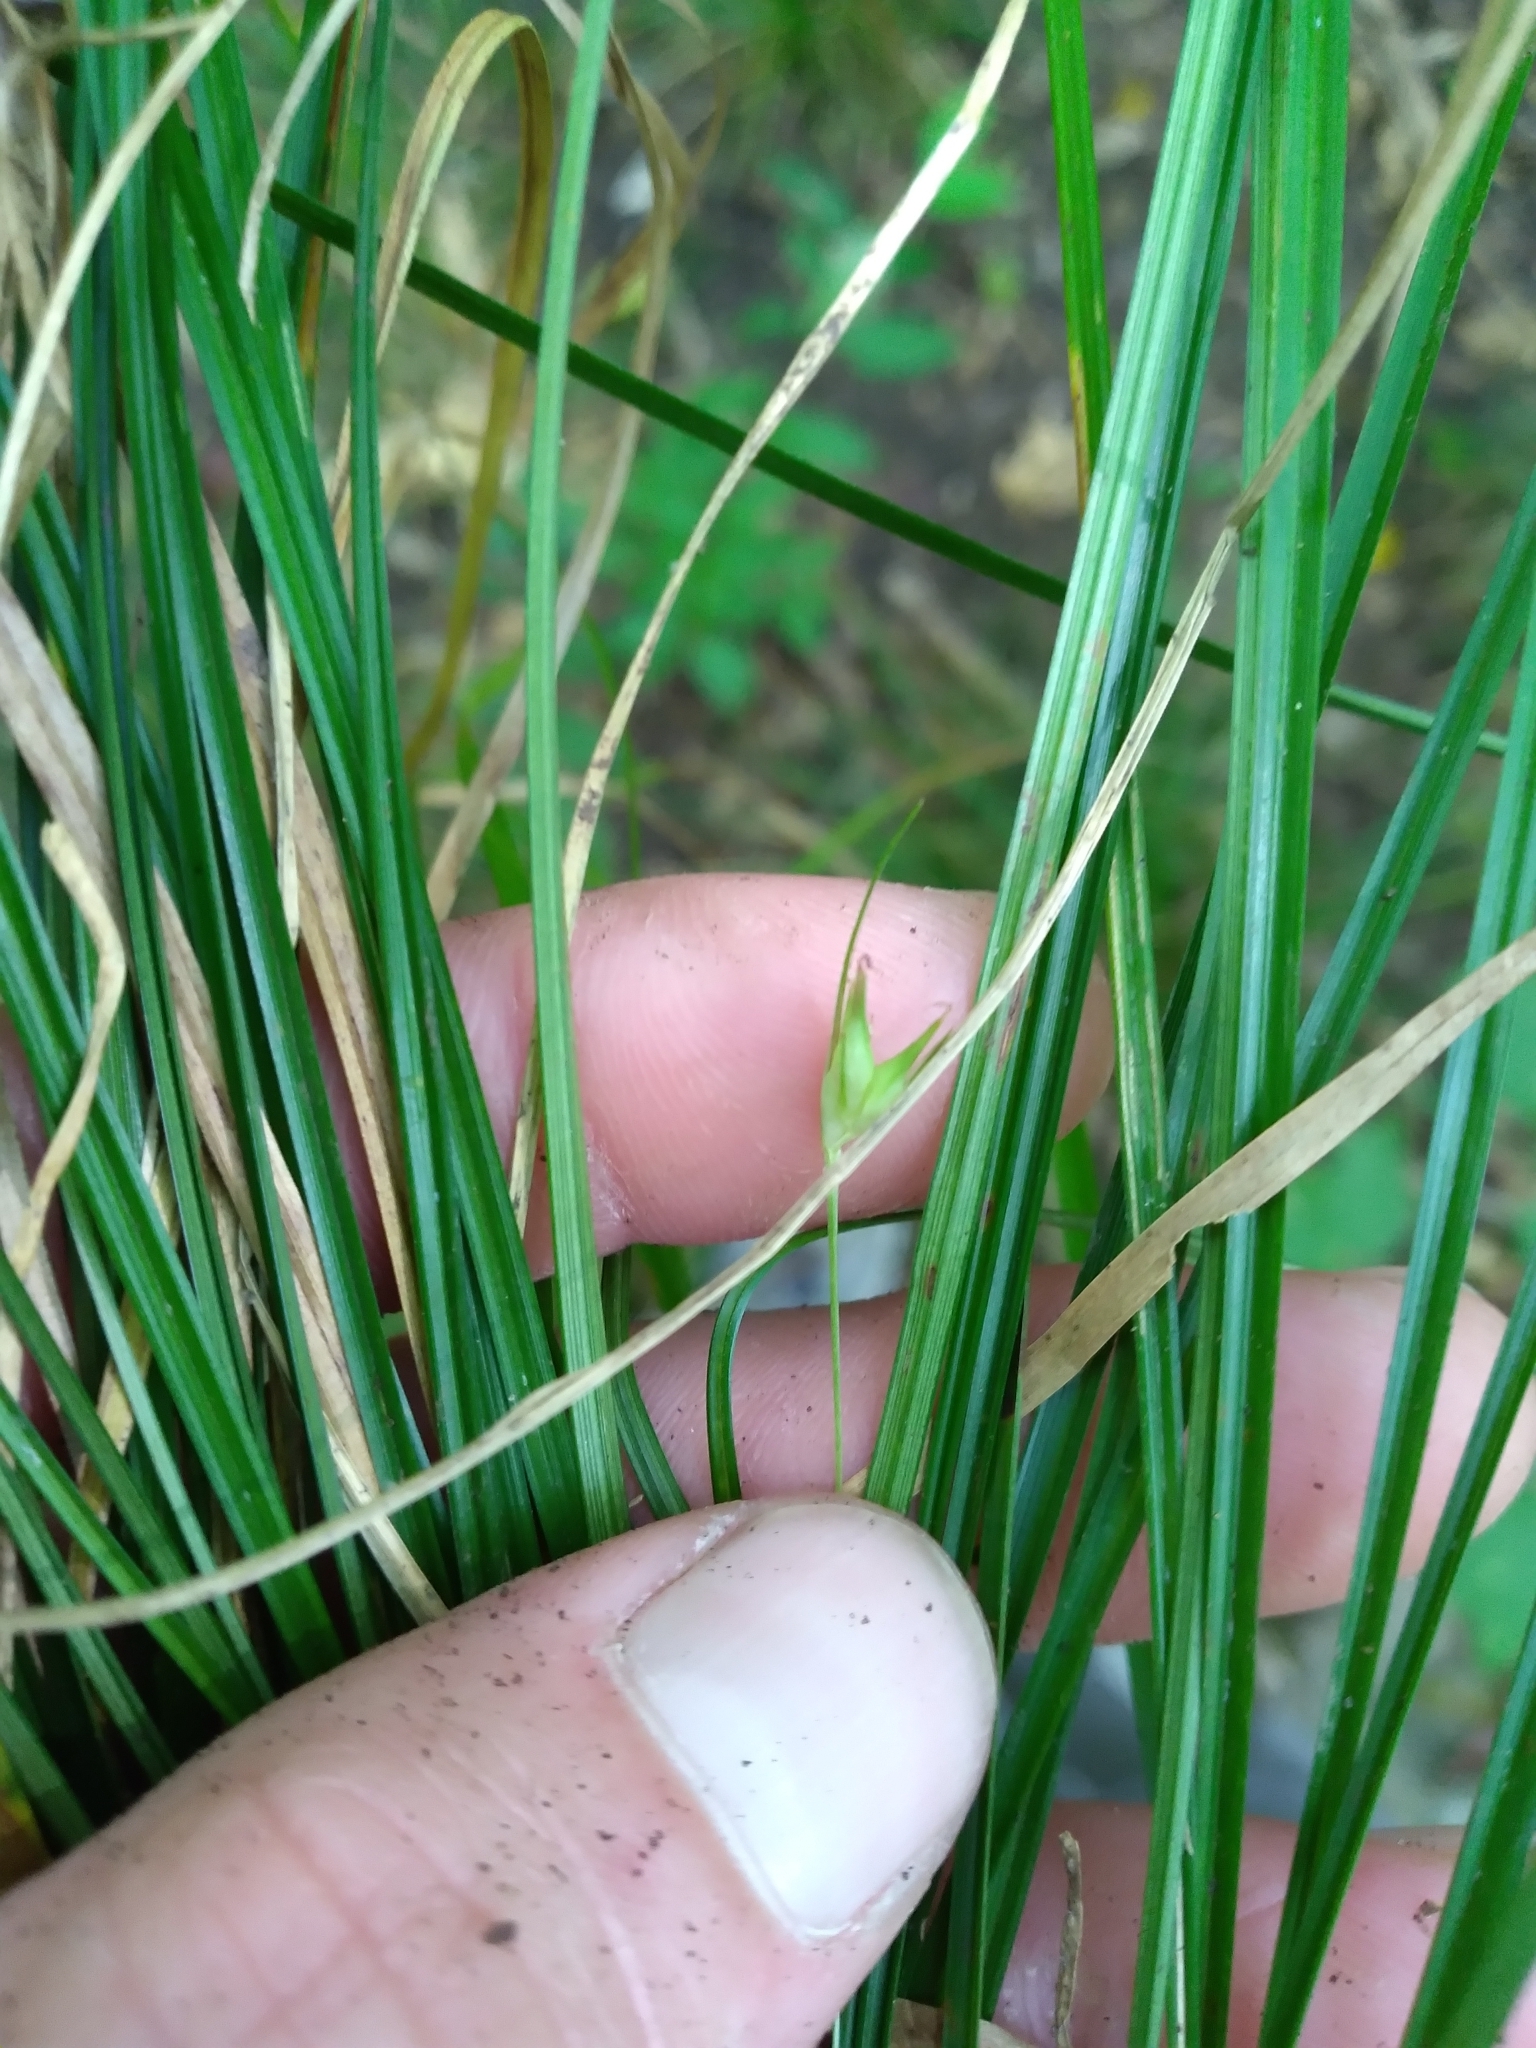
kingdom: Plantae
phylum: Tracheophyta
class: Liliopsida
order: Poales
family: Cyperaceae
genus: Carex
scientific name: Carex basiantha
